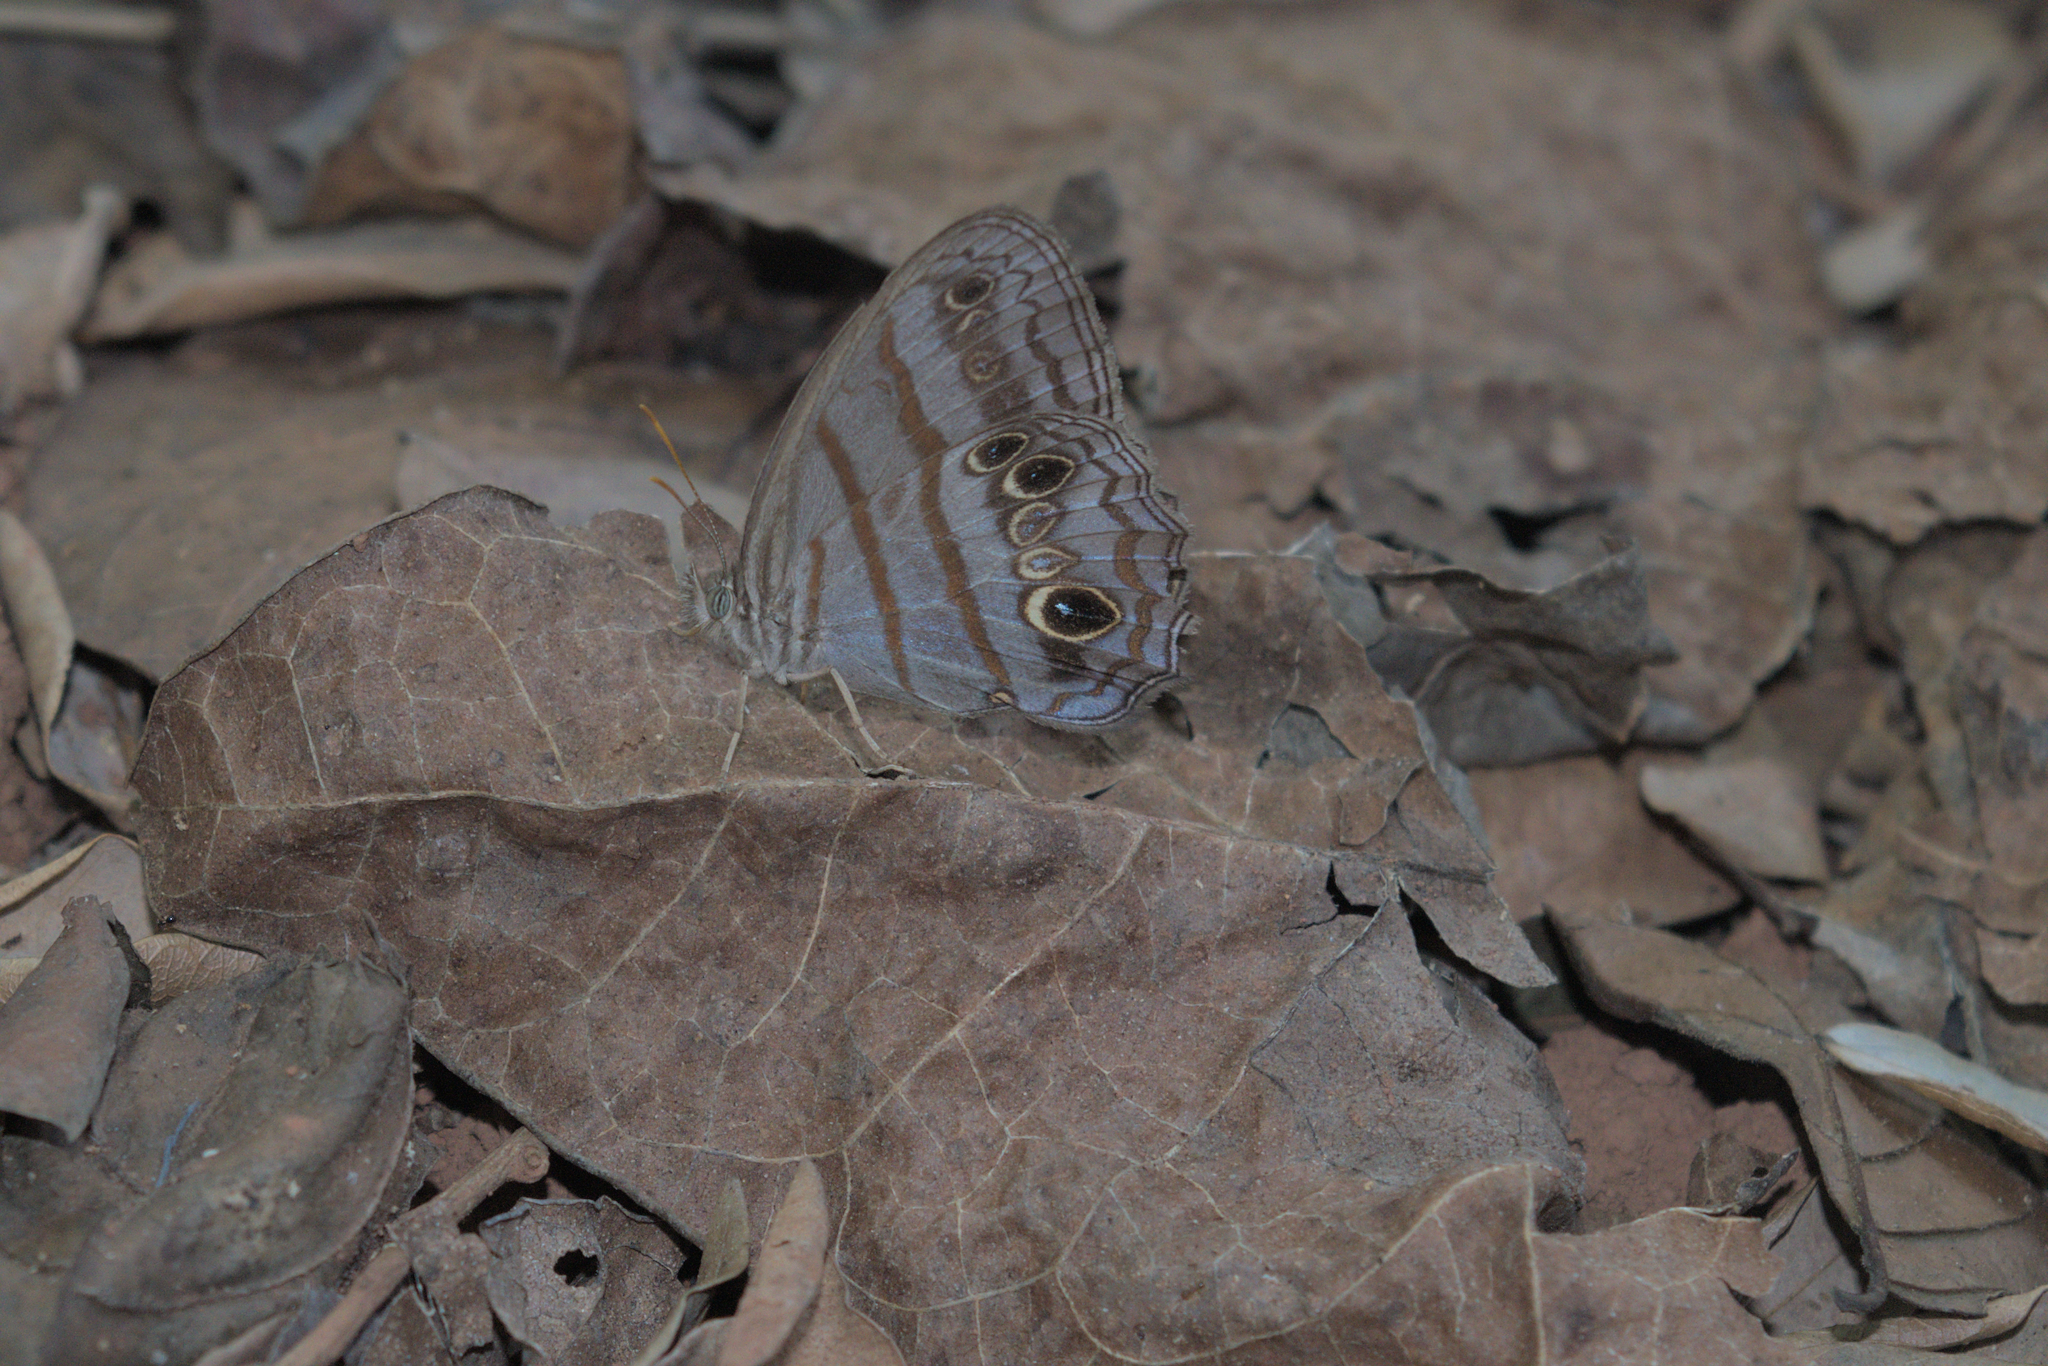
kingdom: Animalia
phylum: Arthropoda
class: Insecta
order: Lepidoptera
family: Nymphalidae
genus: Magneuptychia
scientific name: Magneuptychia libye
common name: Blue-gray satyr
